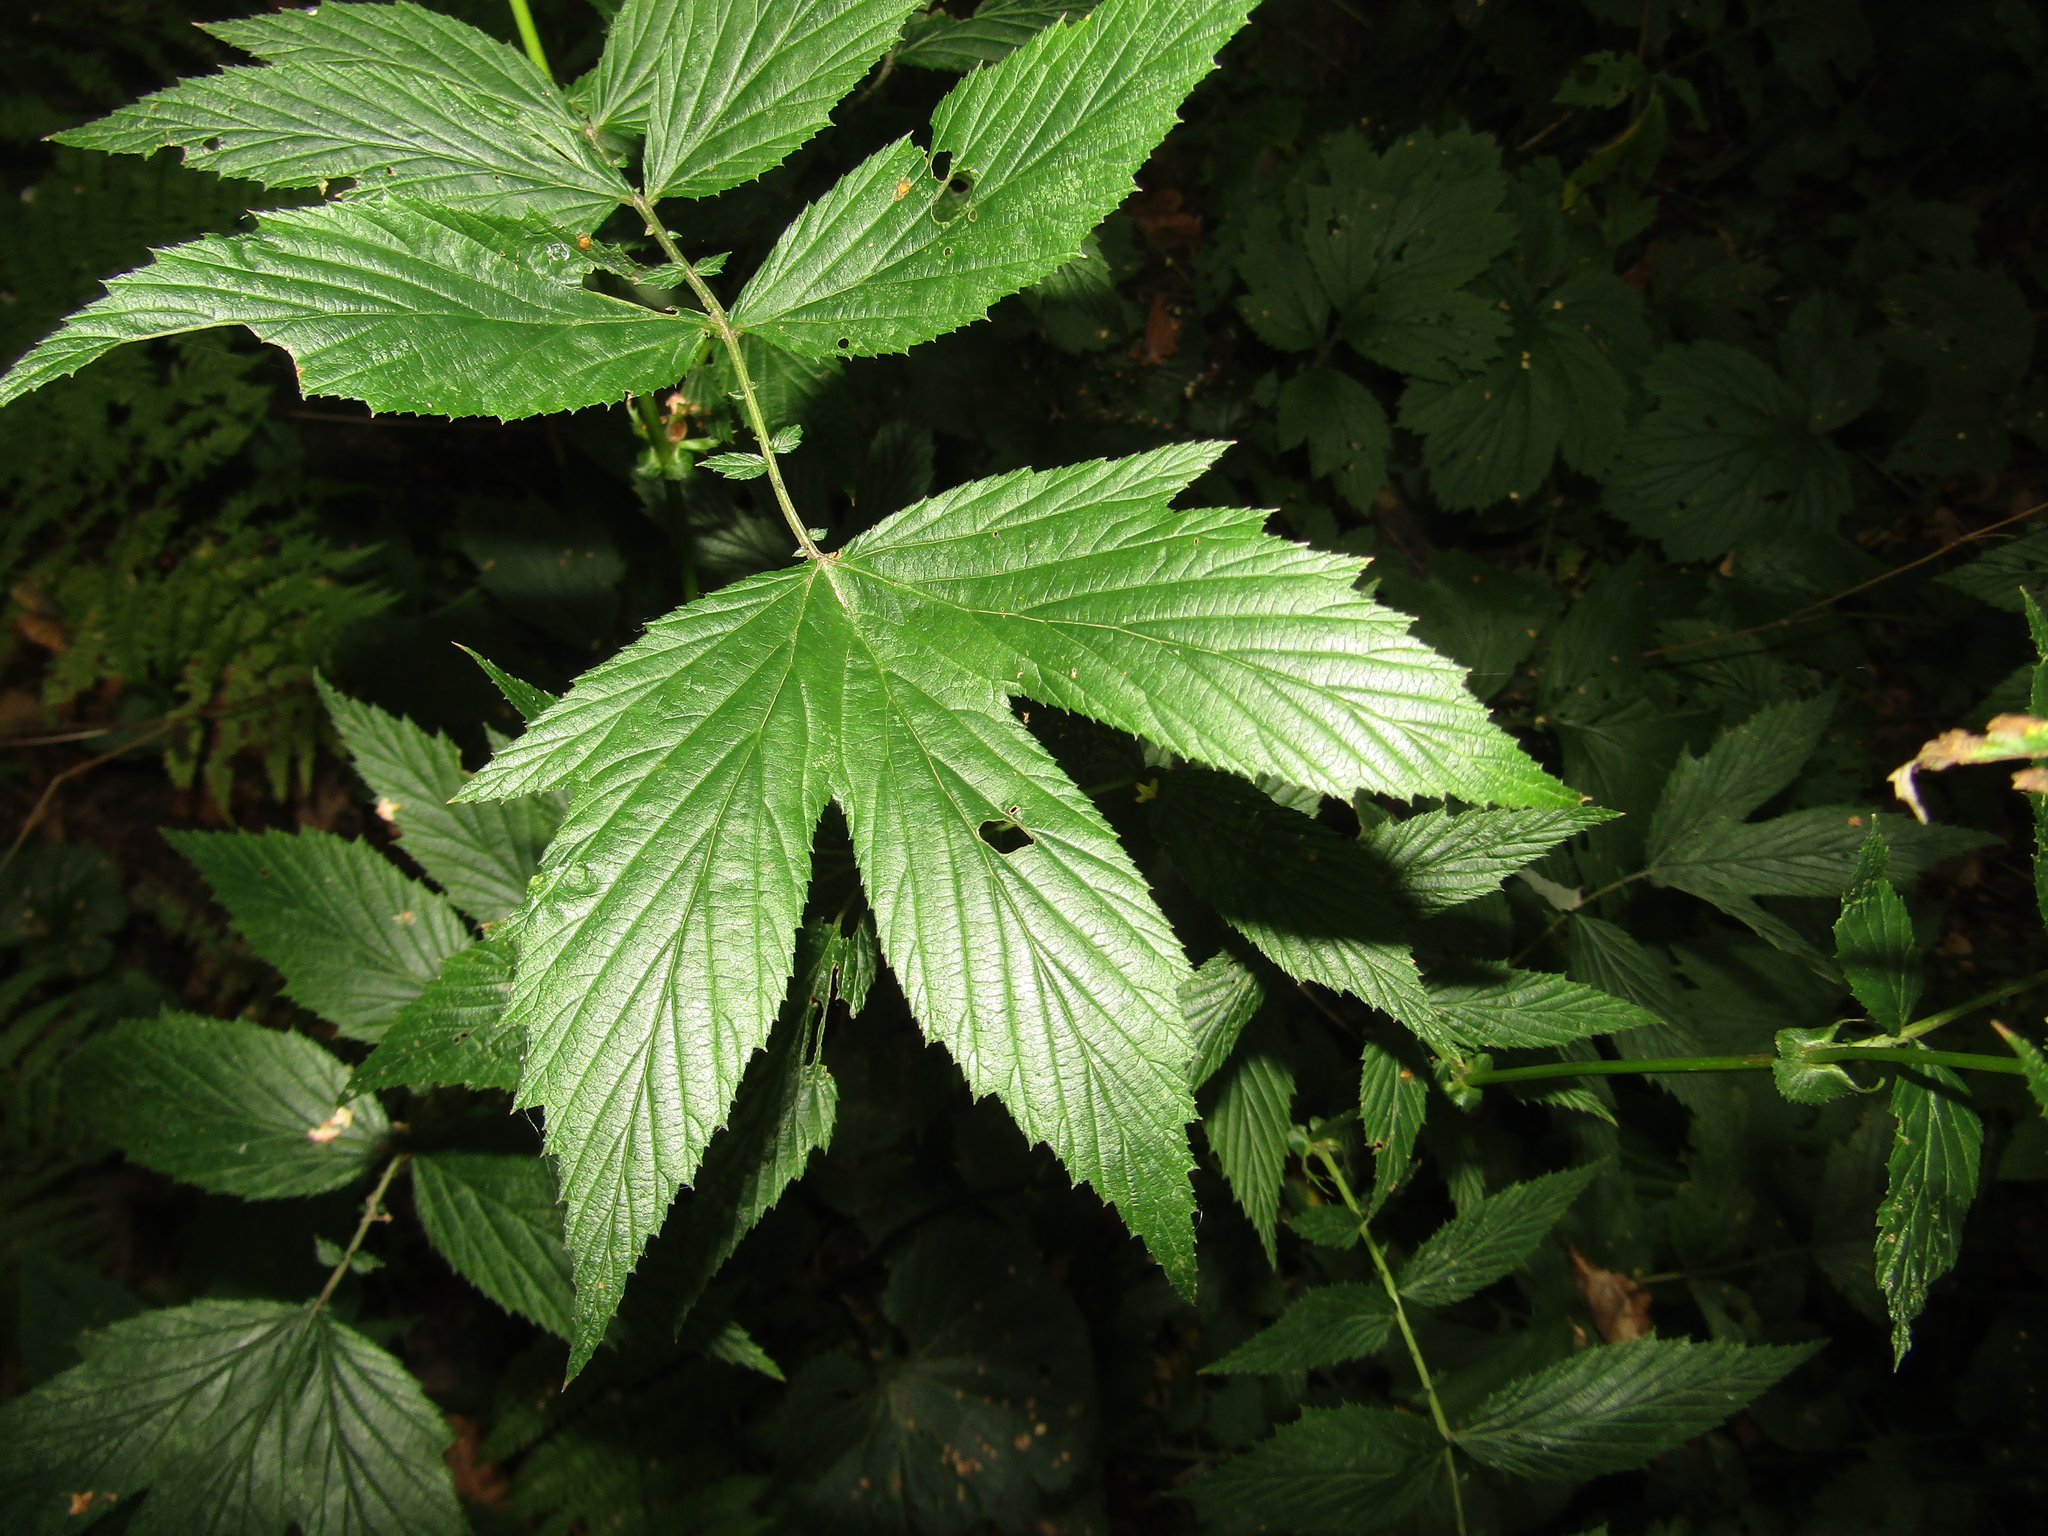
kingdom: Plantae
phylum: Tracheophyta
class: Magnoliopsida
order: Rosales
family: Rosaceae
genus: Filipendula
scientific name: Filipendula ulmaria
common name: Meadowsweet
